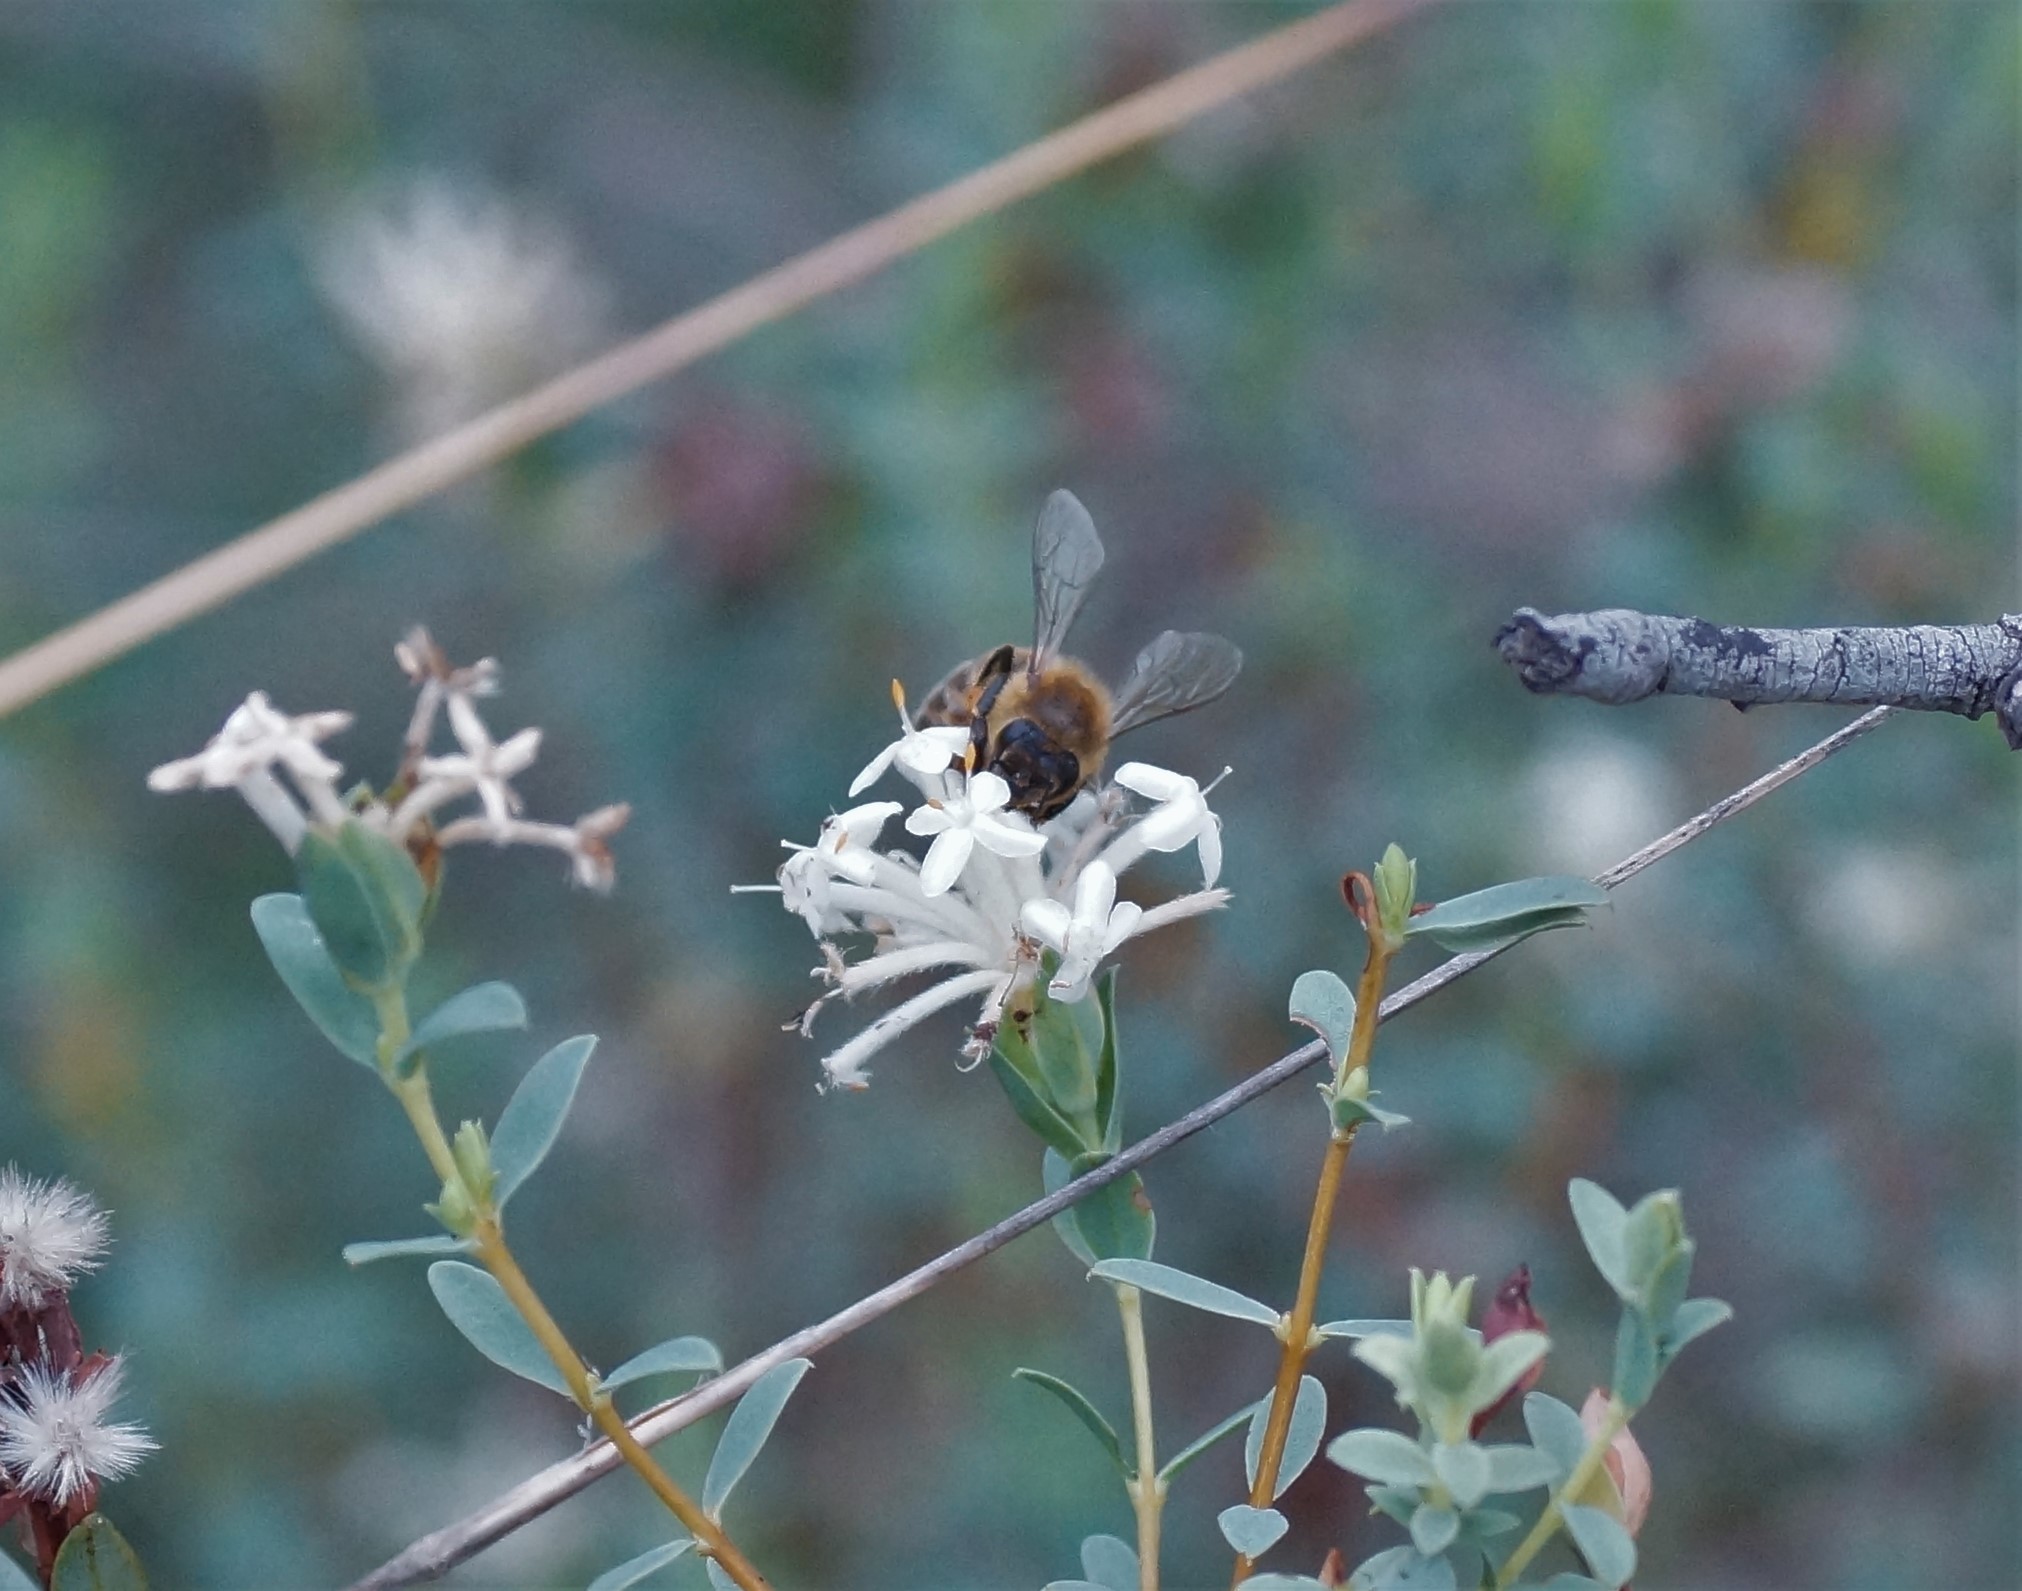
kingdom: Animalia
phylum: Arthropoda
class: Insecta
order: Hymenoptera
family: Apidae
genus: Apis
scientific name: Apis mellifera
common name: Honey bee
